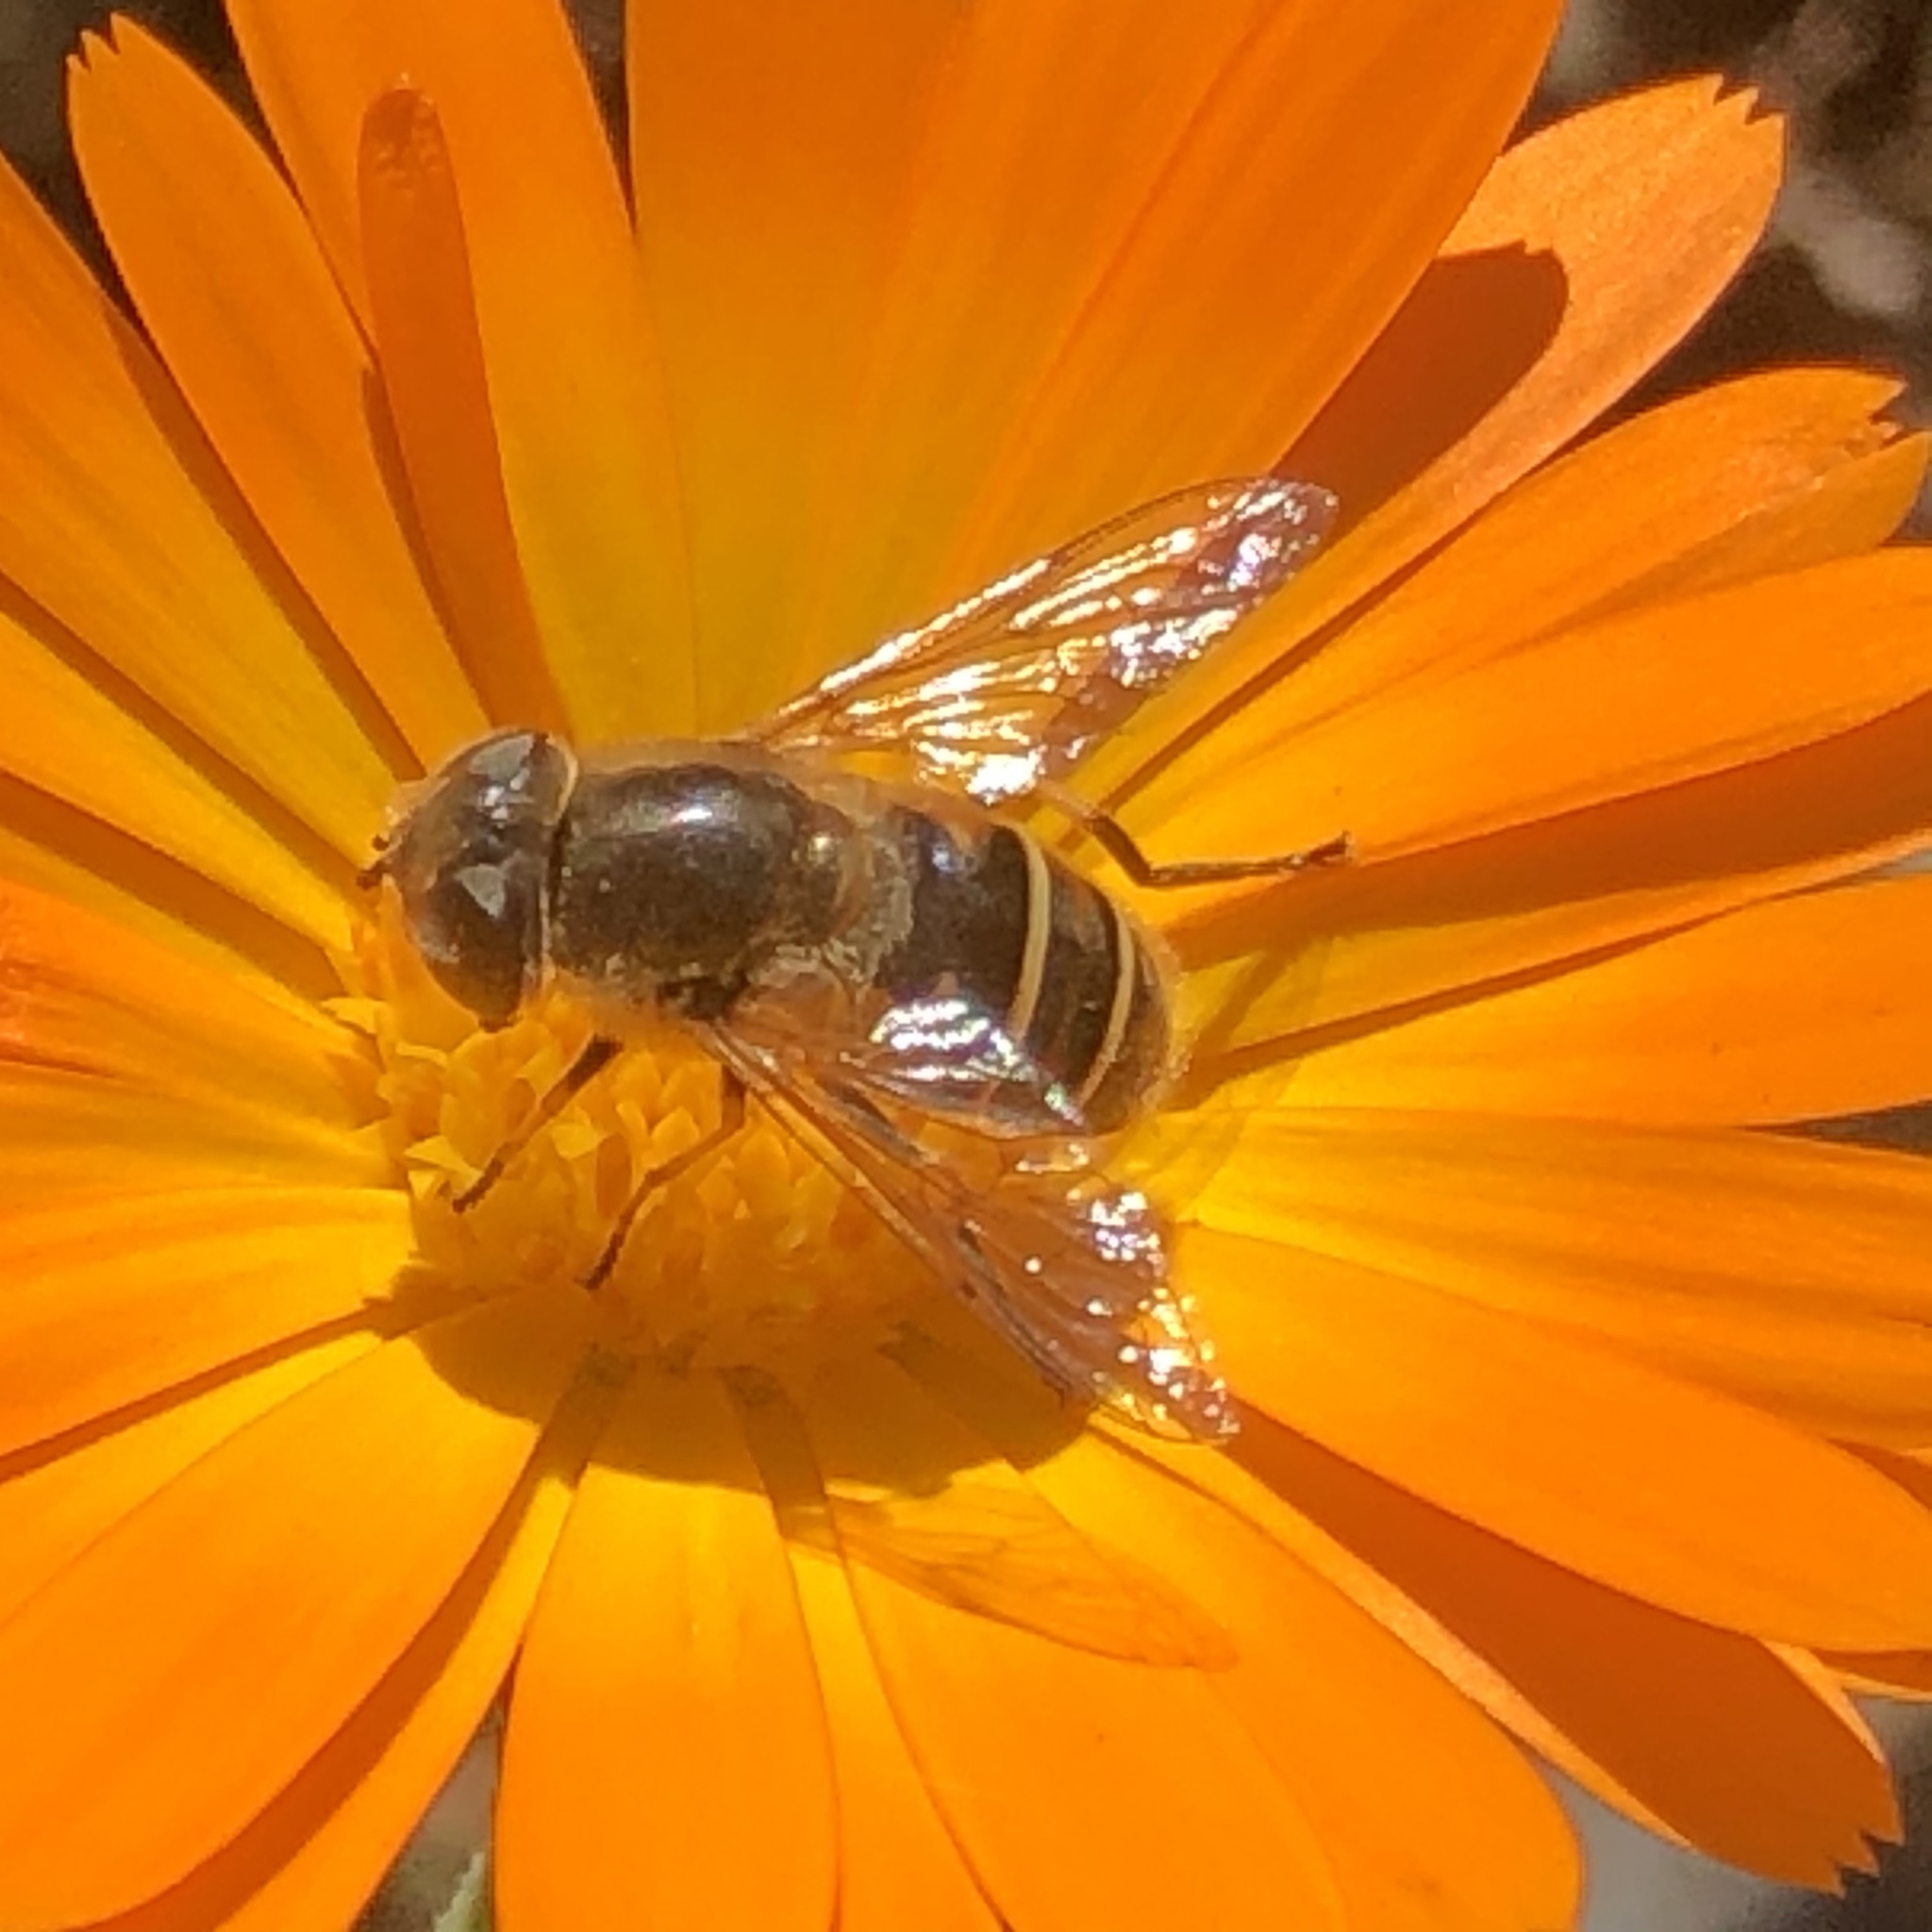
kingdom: Animalia
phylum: Arthropoda
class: Insecta
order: Diptera
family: Syrphidae
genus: Eristalis
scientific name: Eristalis stipator
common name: Yellow-shouldered drone fly
